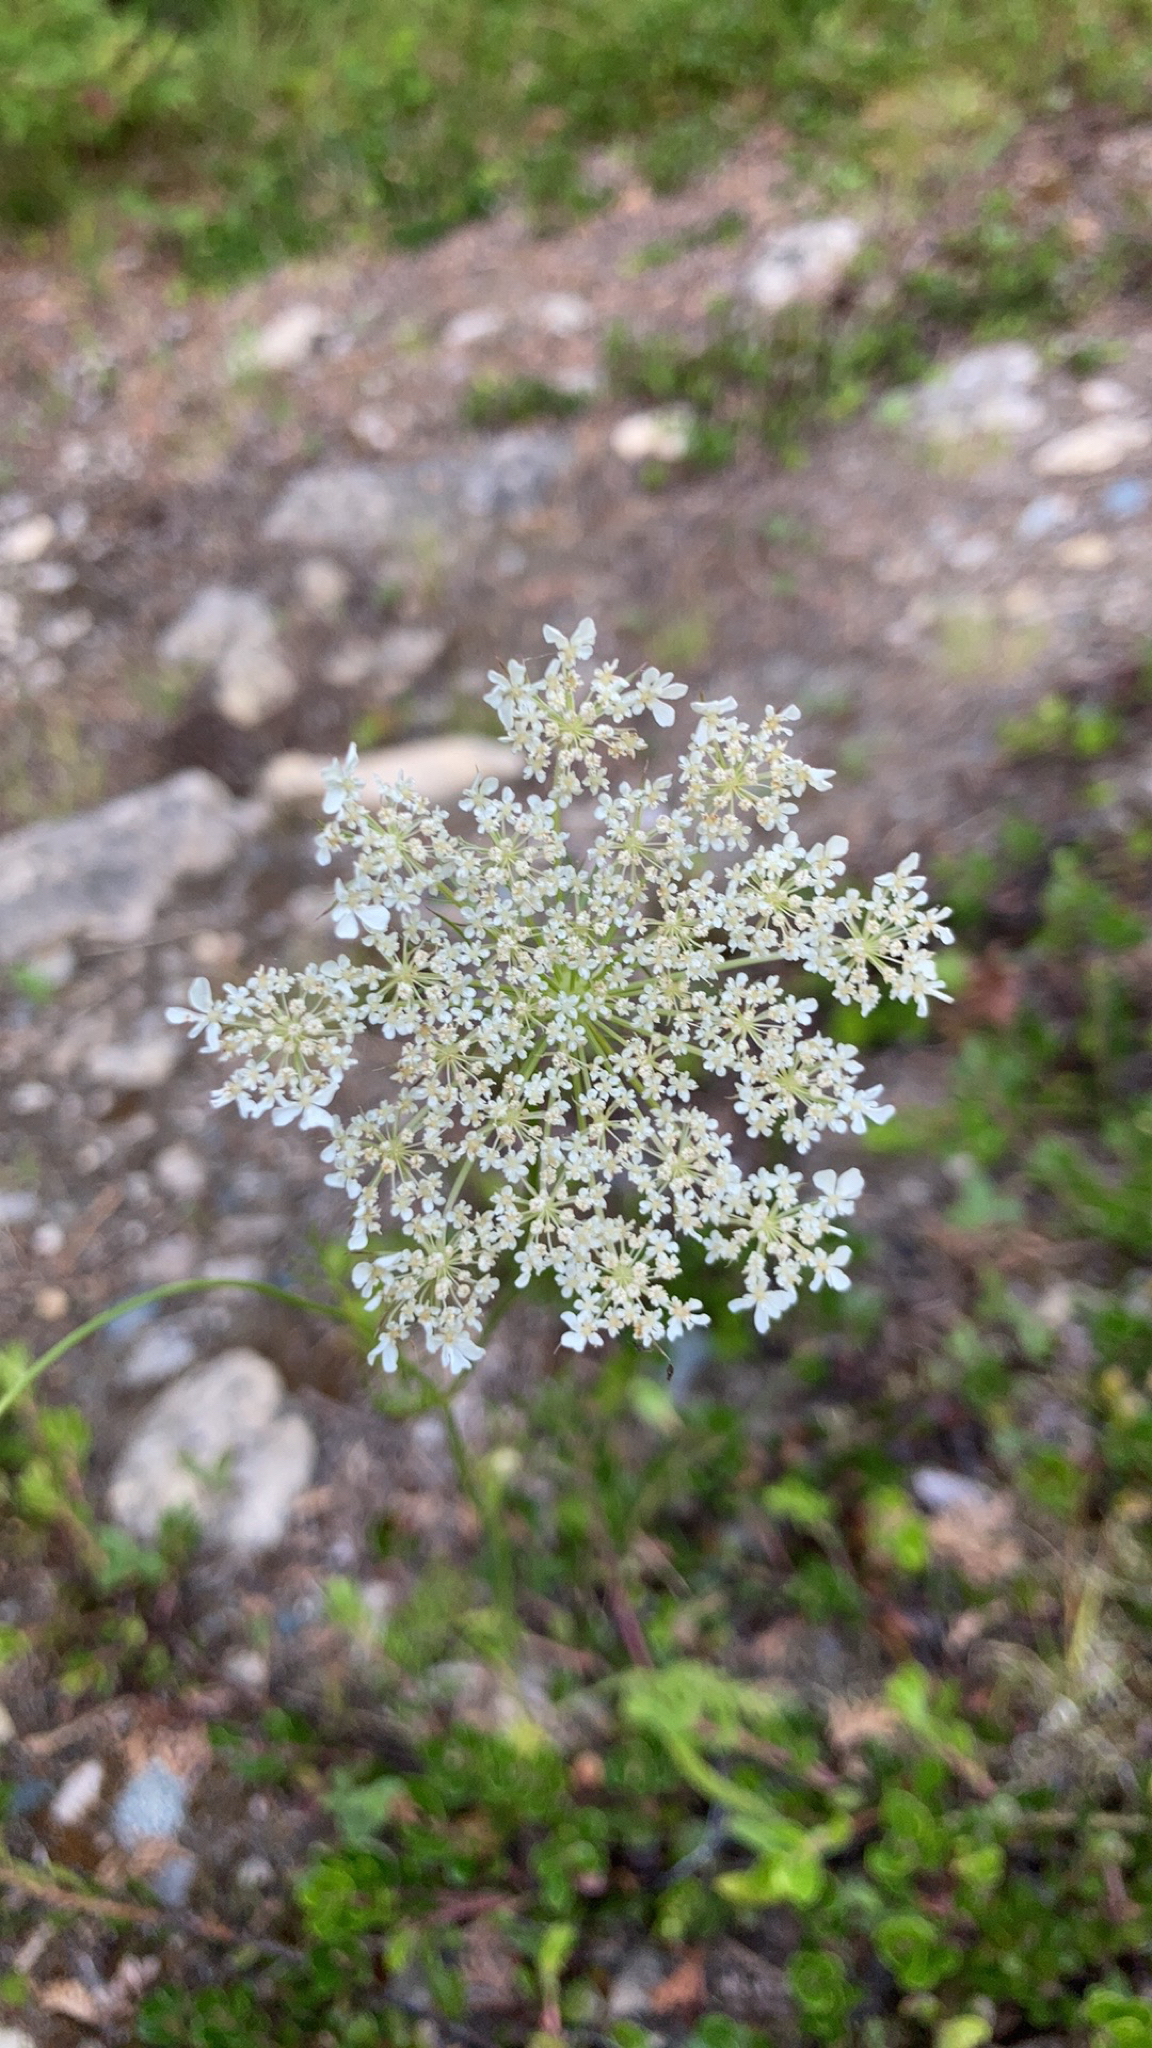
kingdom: Plantae
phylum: Tracheophyta
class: Magnoliopsida
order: Apiales
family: Apiaceae
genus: Daucus
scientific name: Daucus carota
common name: Wild carrot
